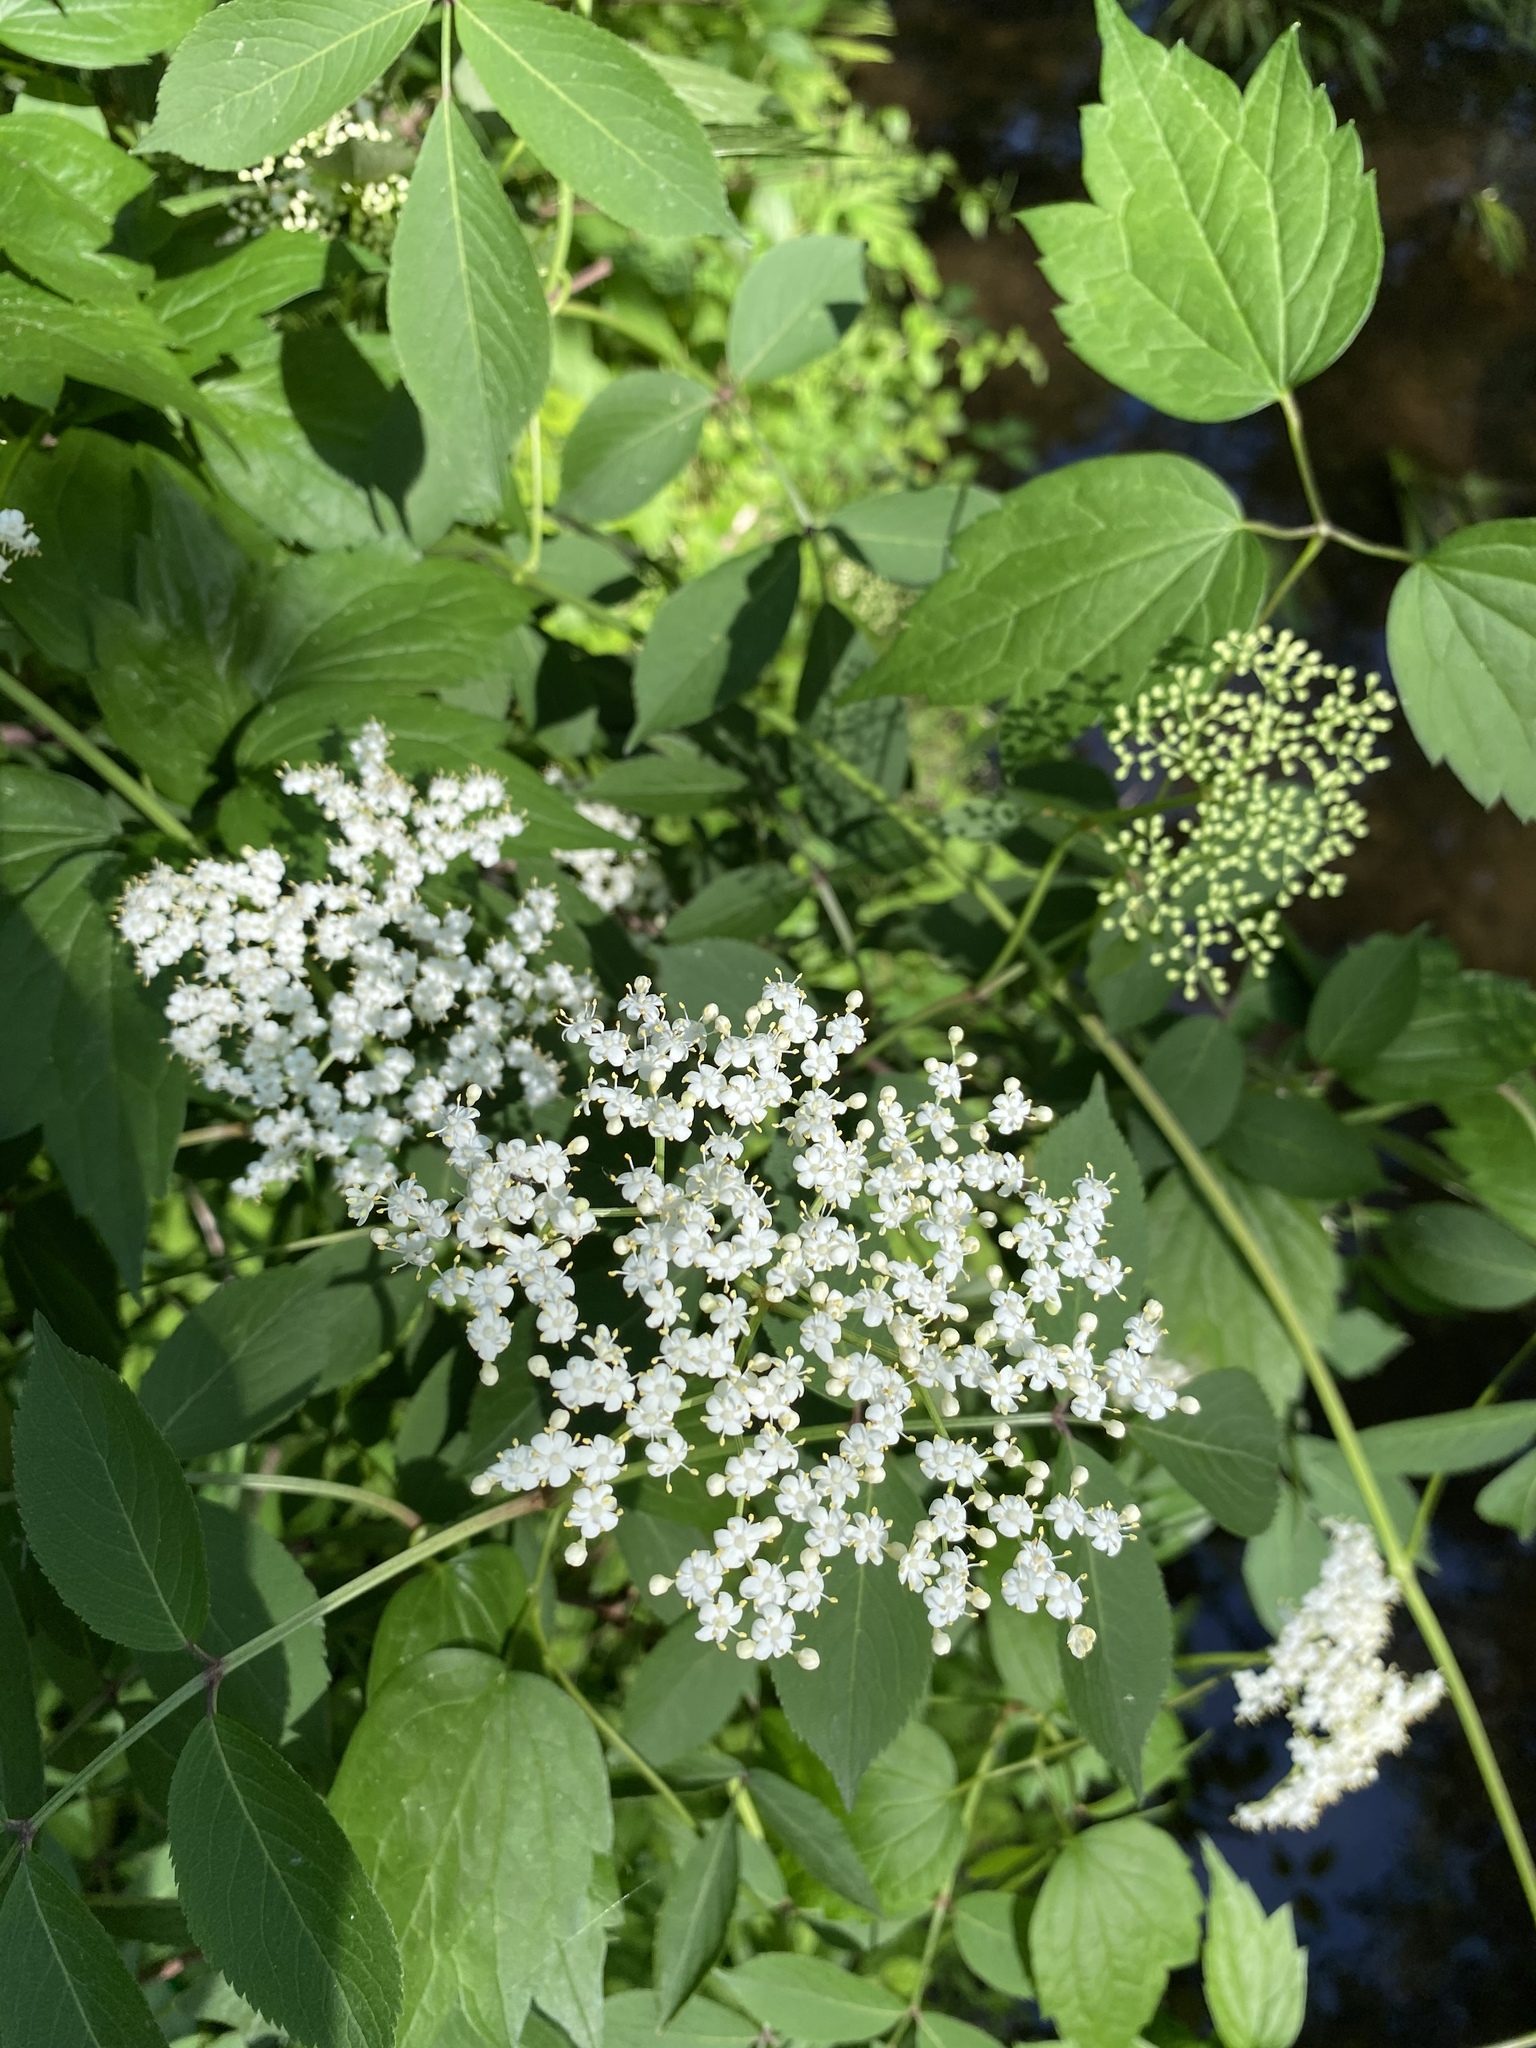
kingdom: Plantae
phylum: Tracheophyta
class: Magnoliopsida
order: Dipsacales
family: Viburnaceae
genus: Sambucus
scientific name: Sambucus canadensis
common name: American elder
